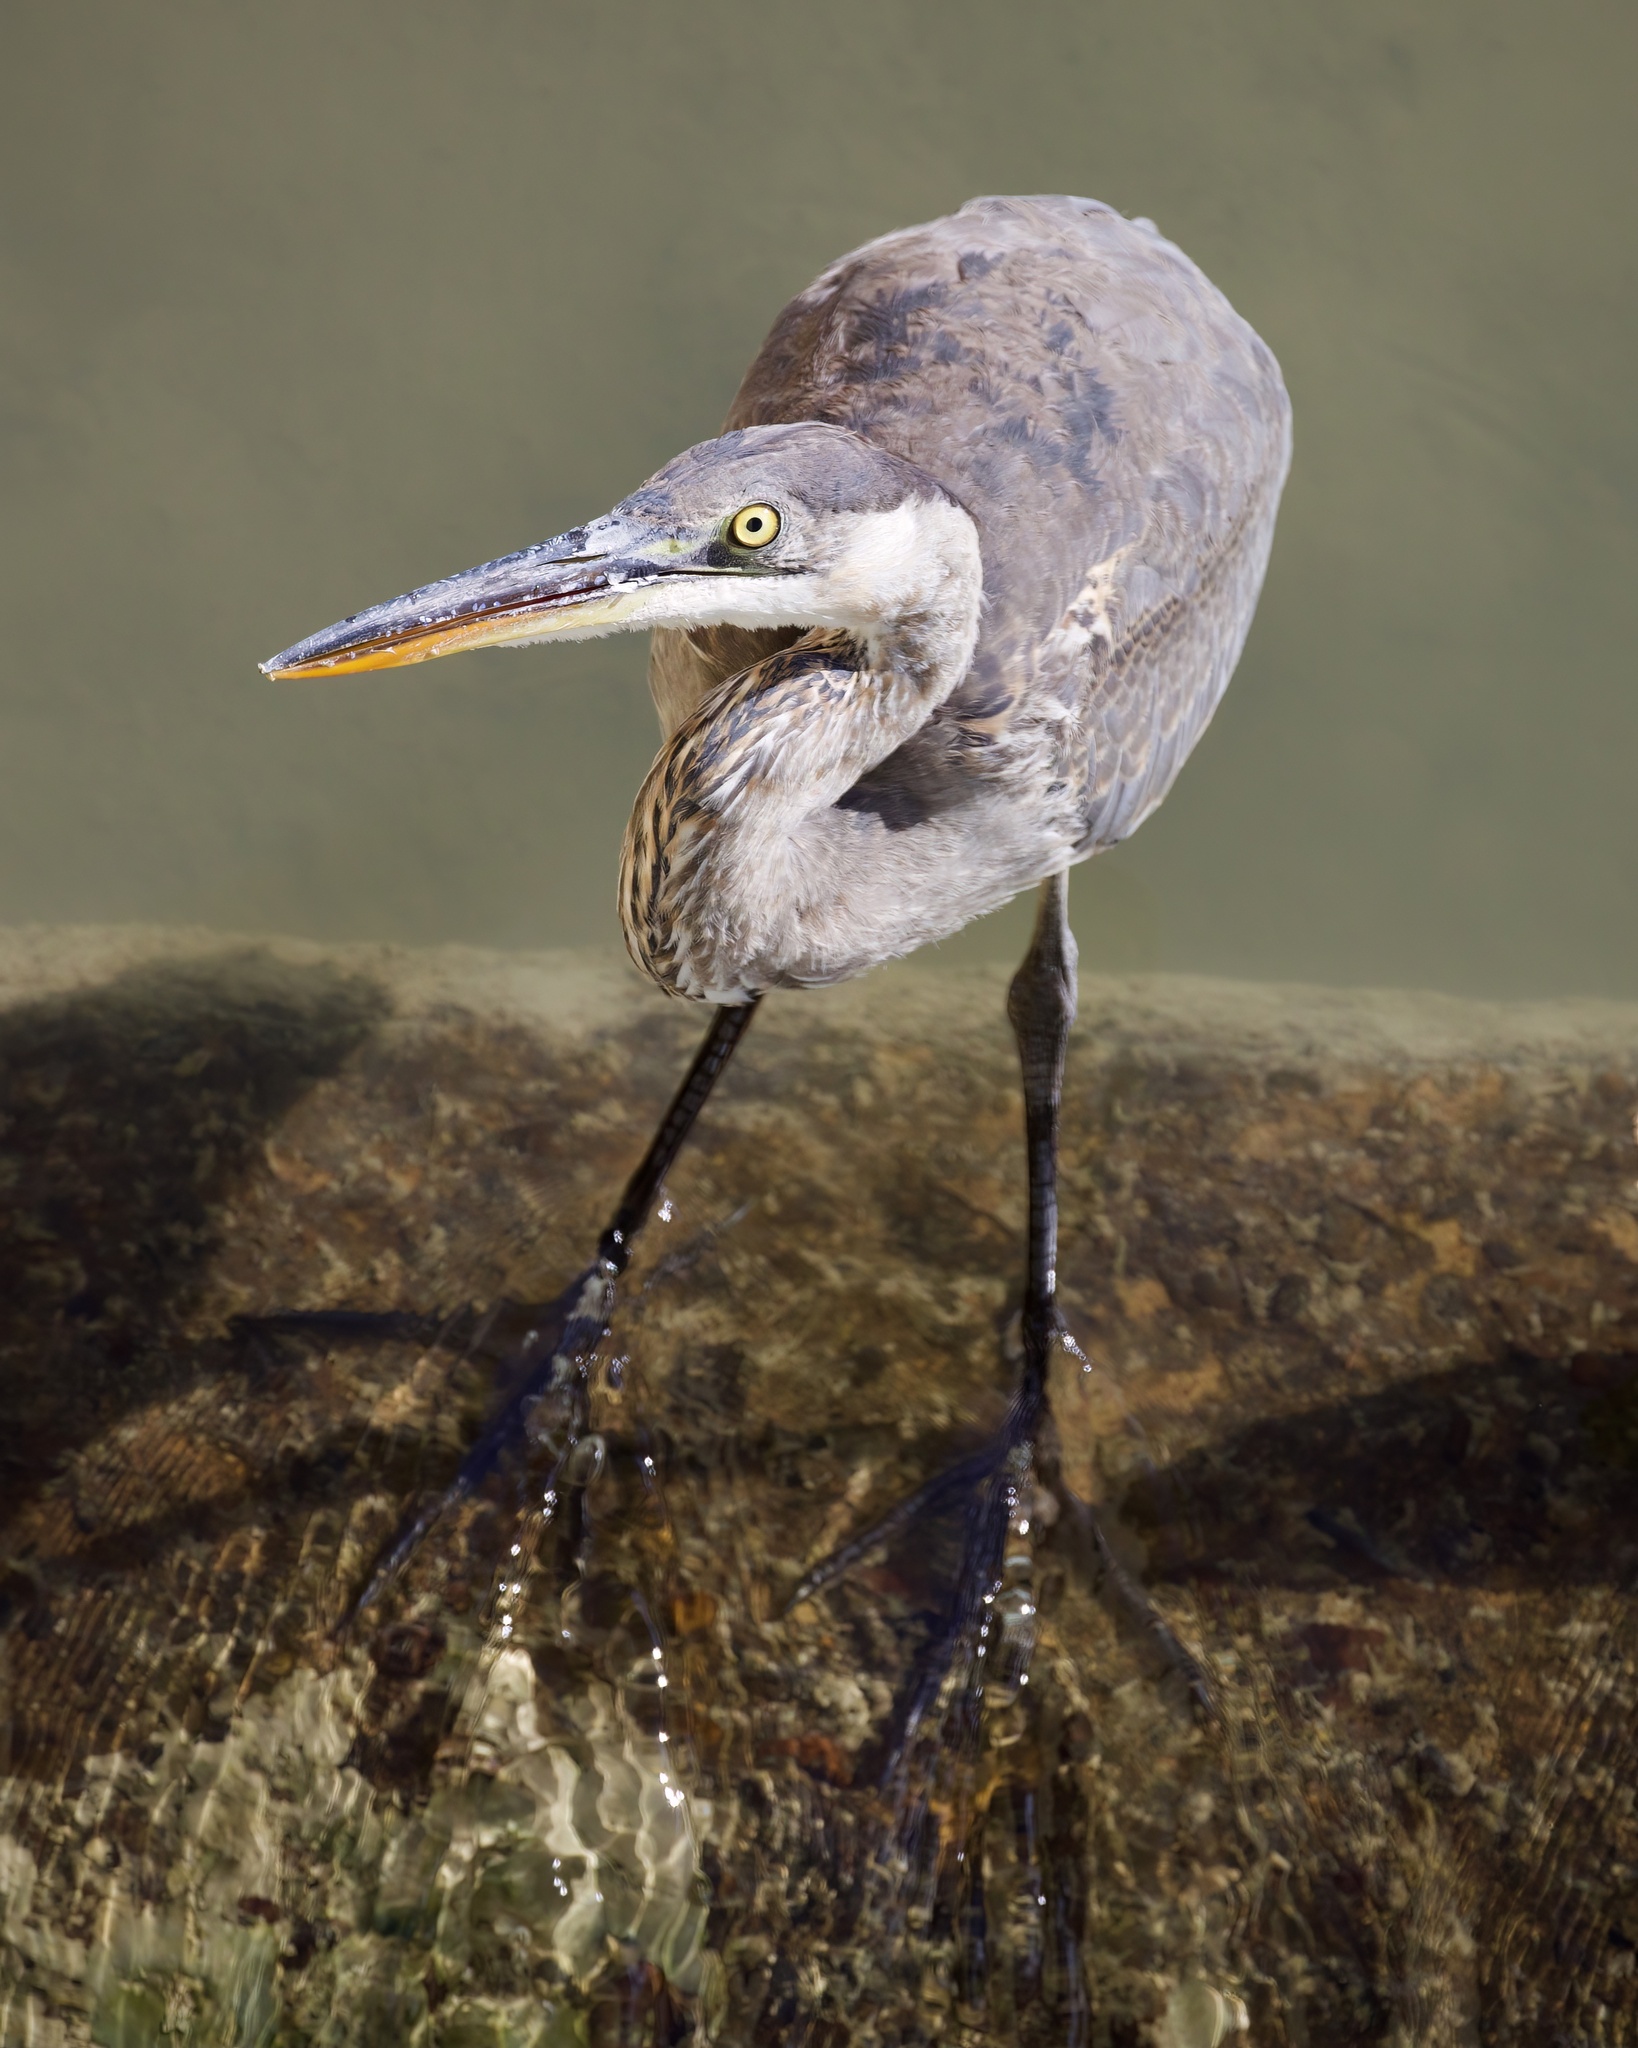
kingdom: Animalia
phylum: Chordata
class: Aves
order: Pelecaniformes
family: Ardeidae
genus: Ardea
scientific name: Ardea herodias
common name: Great blue heron
